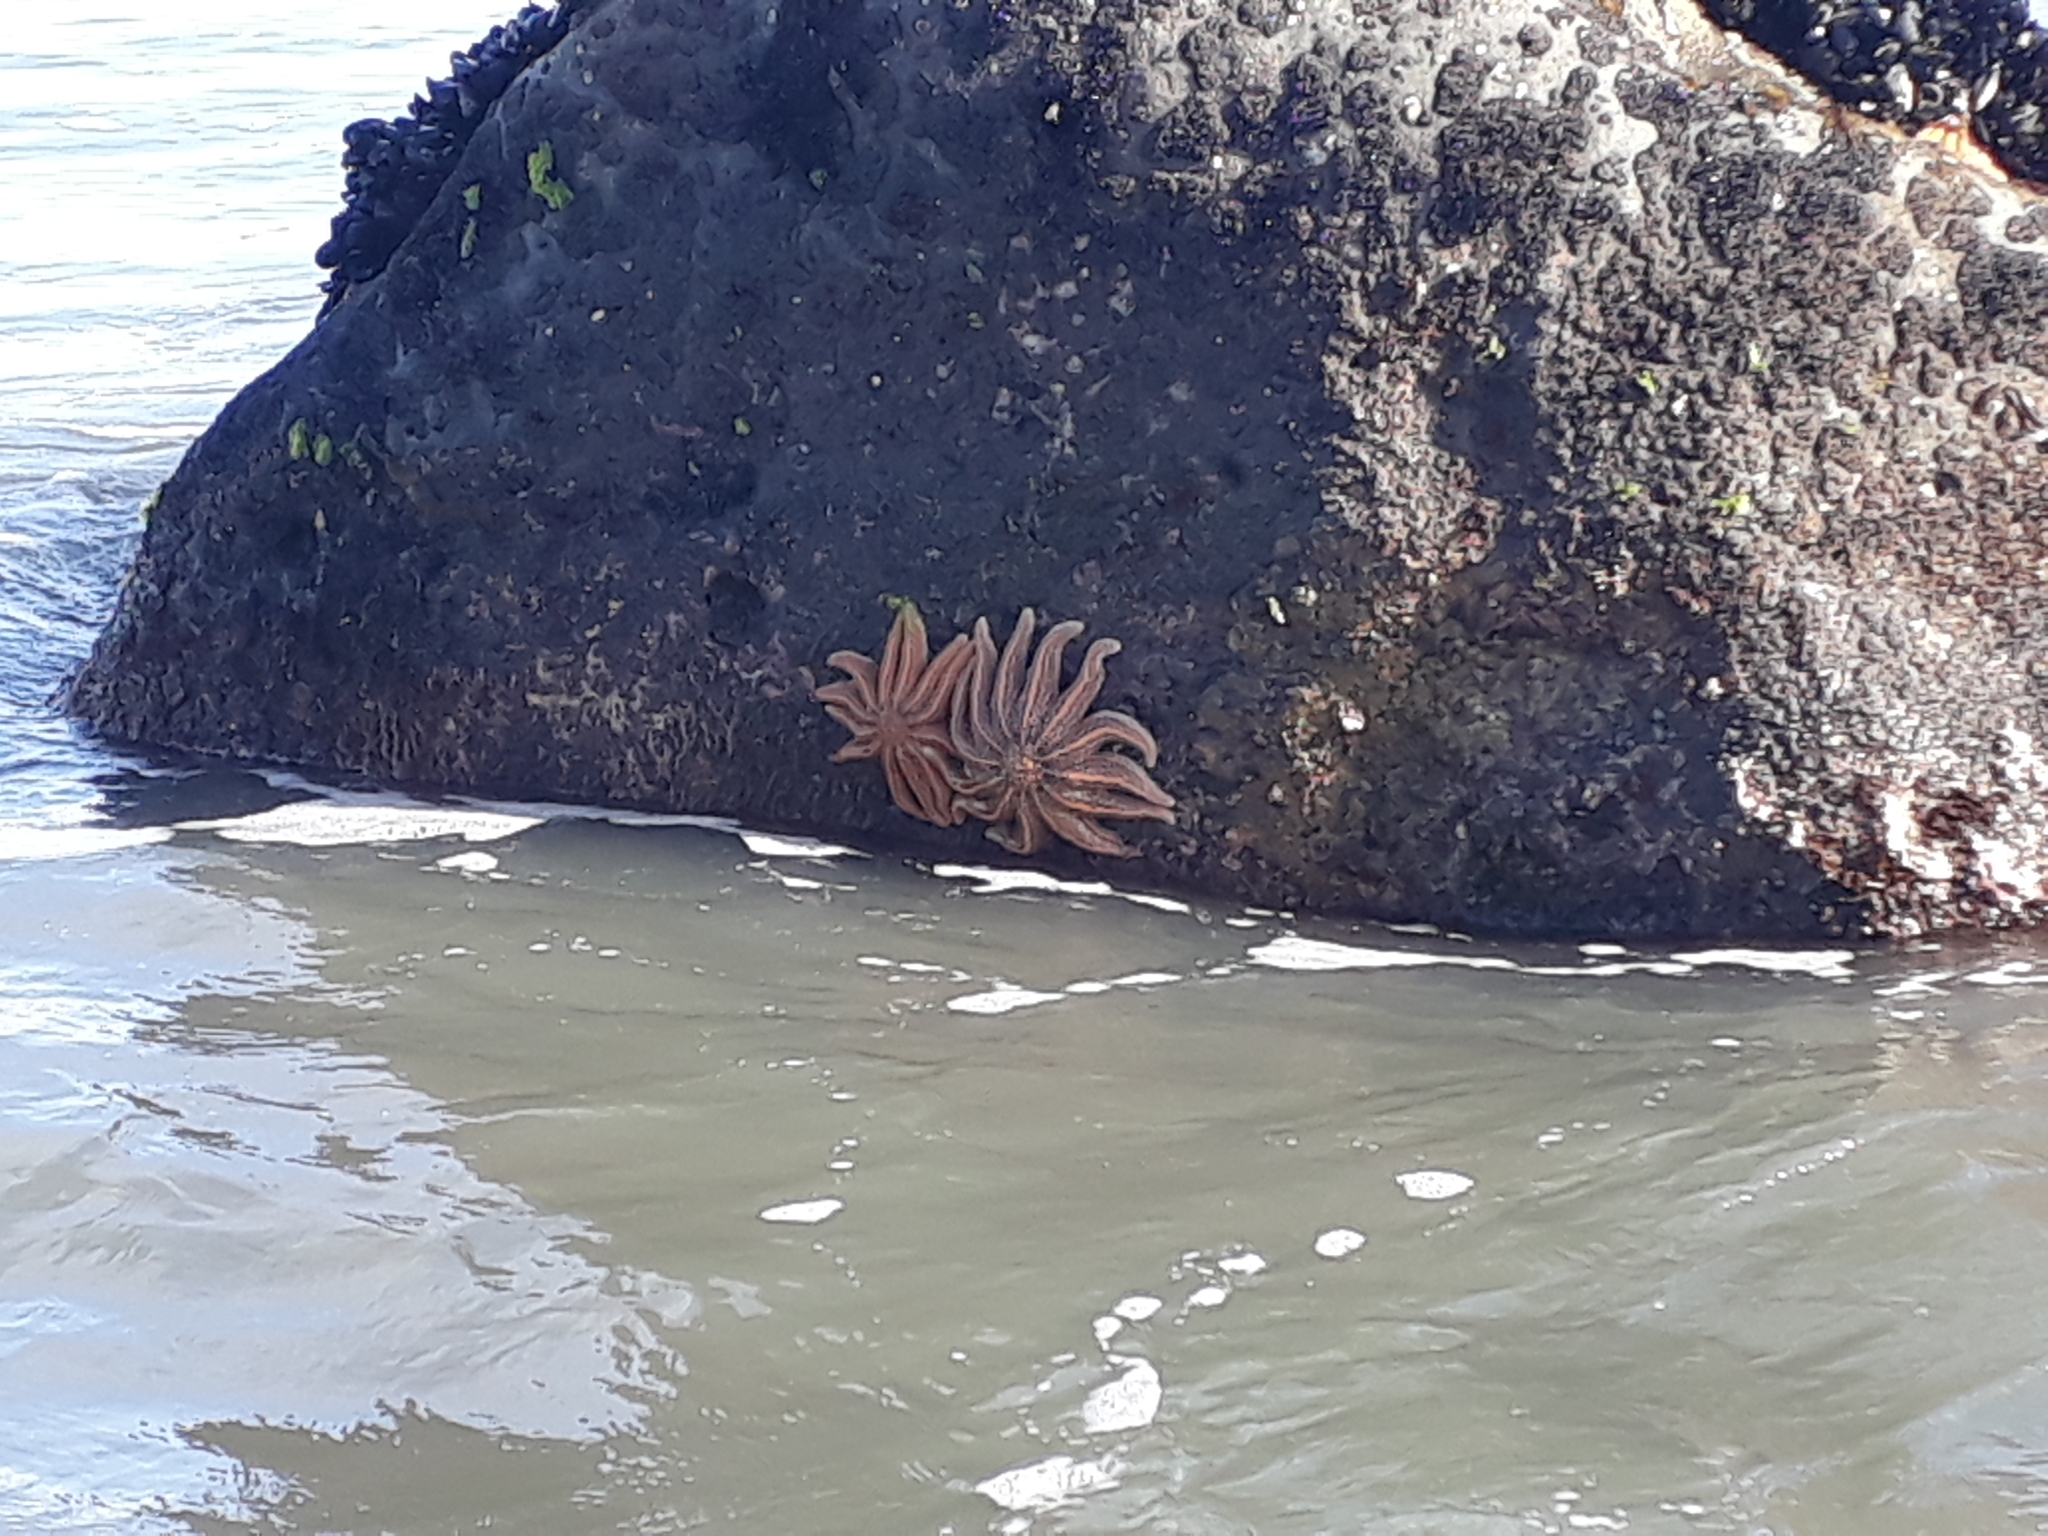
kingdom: Animalia
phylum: Echinodermata
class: Asteroidea
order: Forcipulatida
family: Stichasteridae
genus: Stichaster
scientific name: Stichaster australis
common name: Reef starfish
